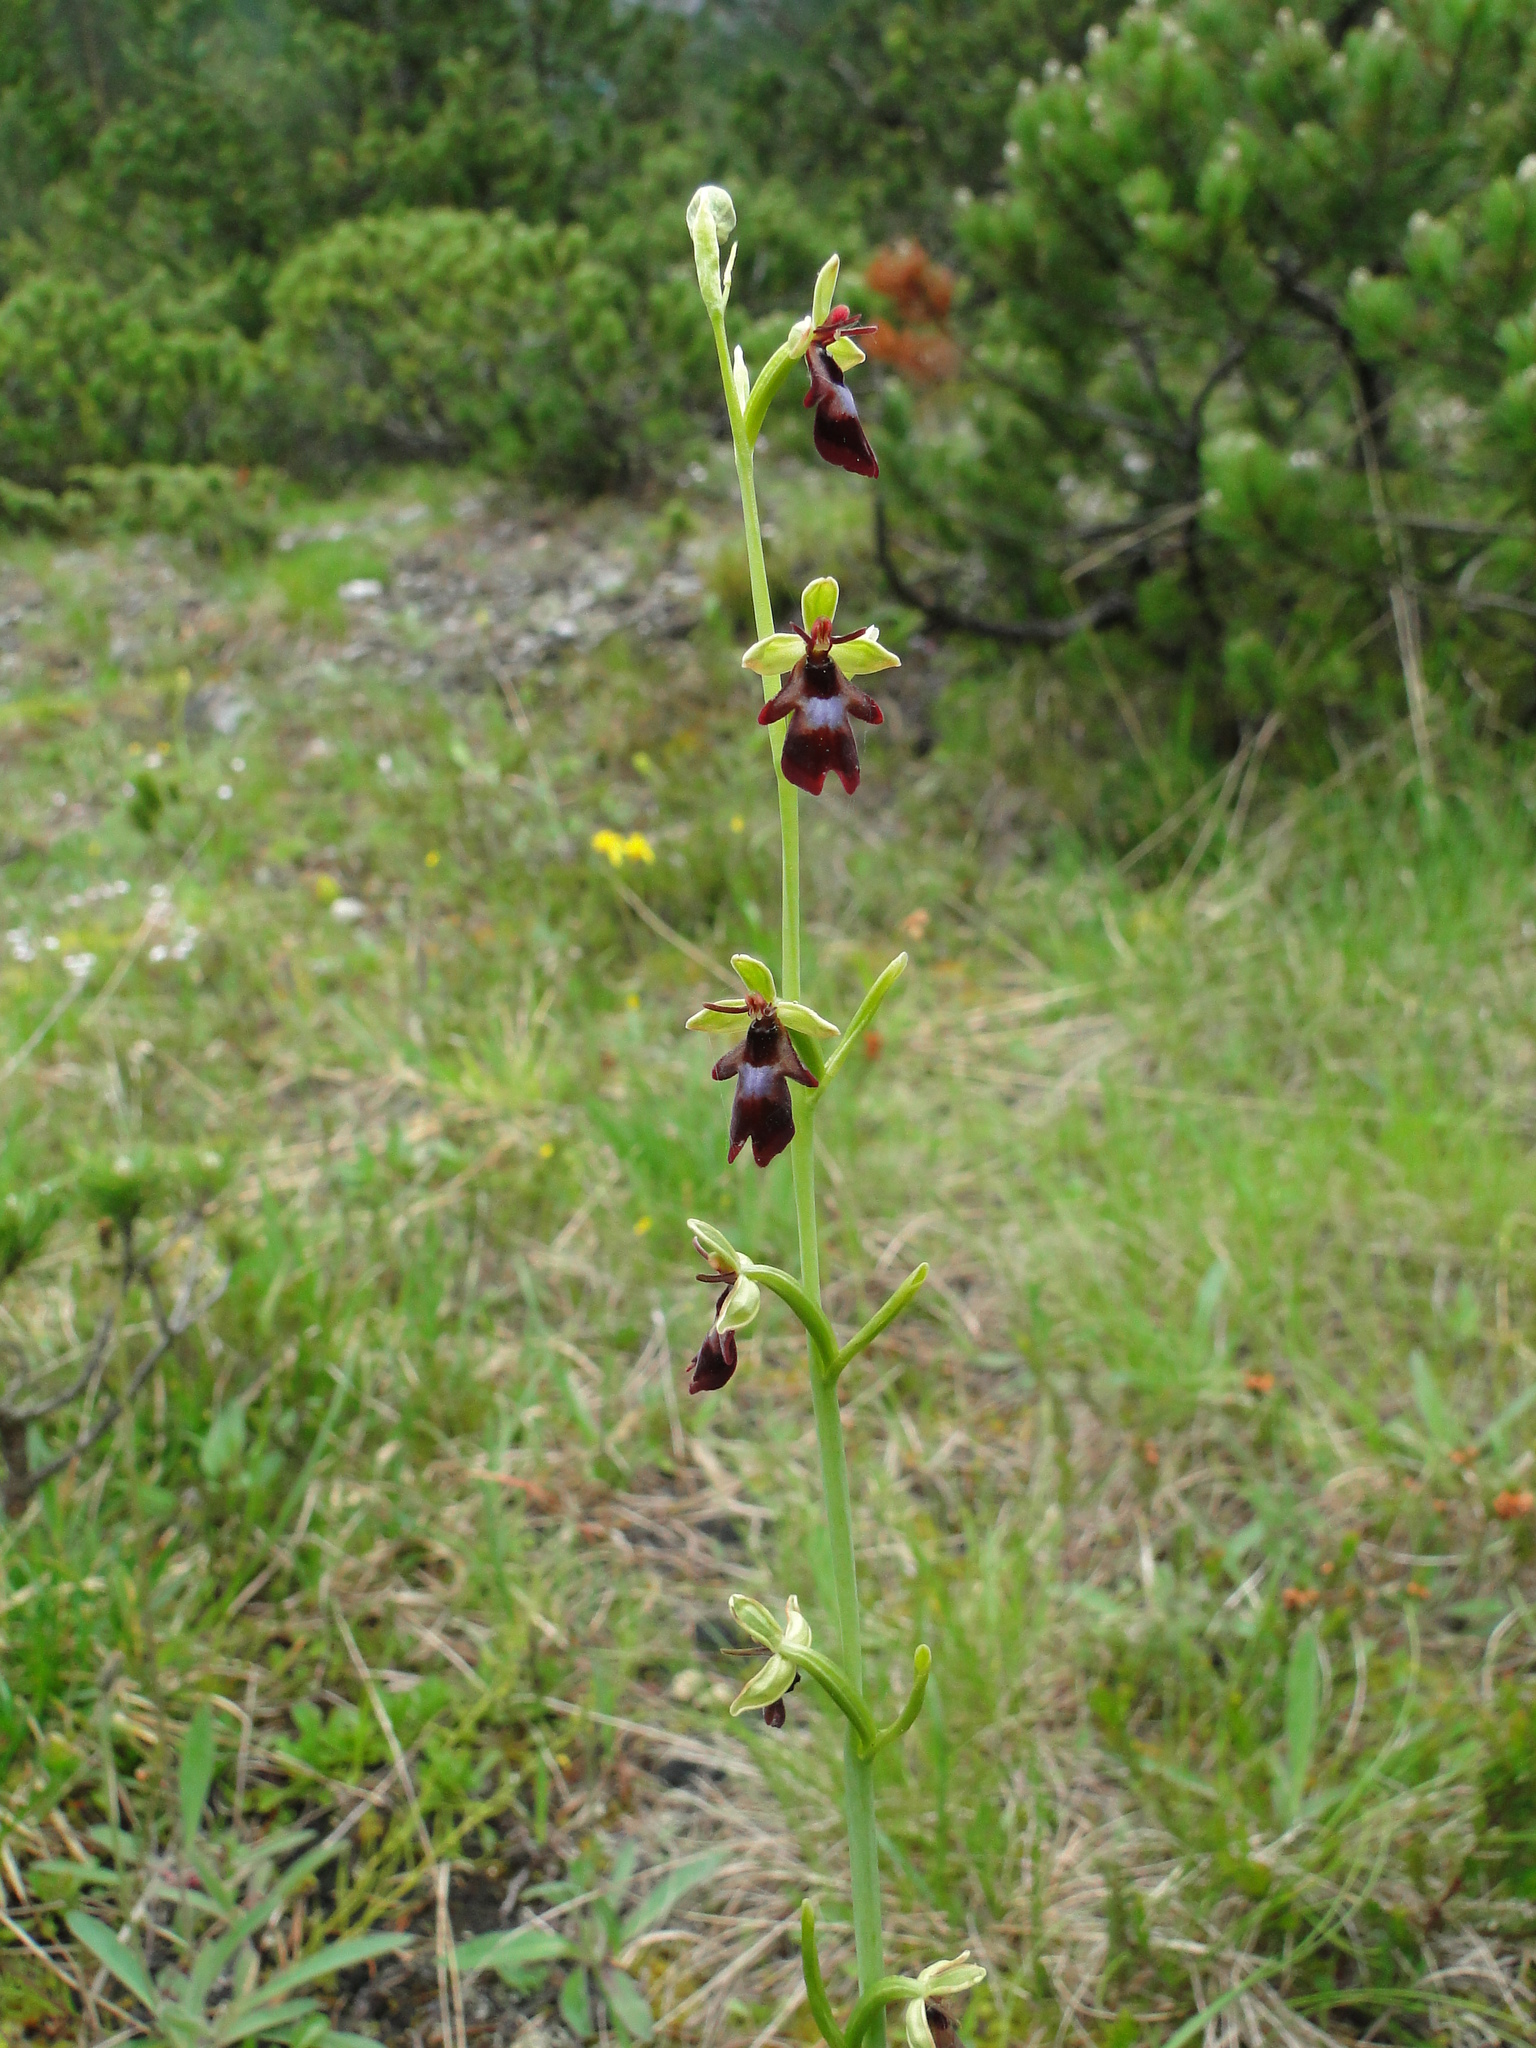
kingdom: Plantae
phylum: Tracheophyta
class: Liliopsida
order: Asparagales
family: Orchidaceae
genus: Ophrys
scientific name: Ophrys insectifera
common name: Fly orchid
